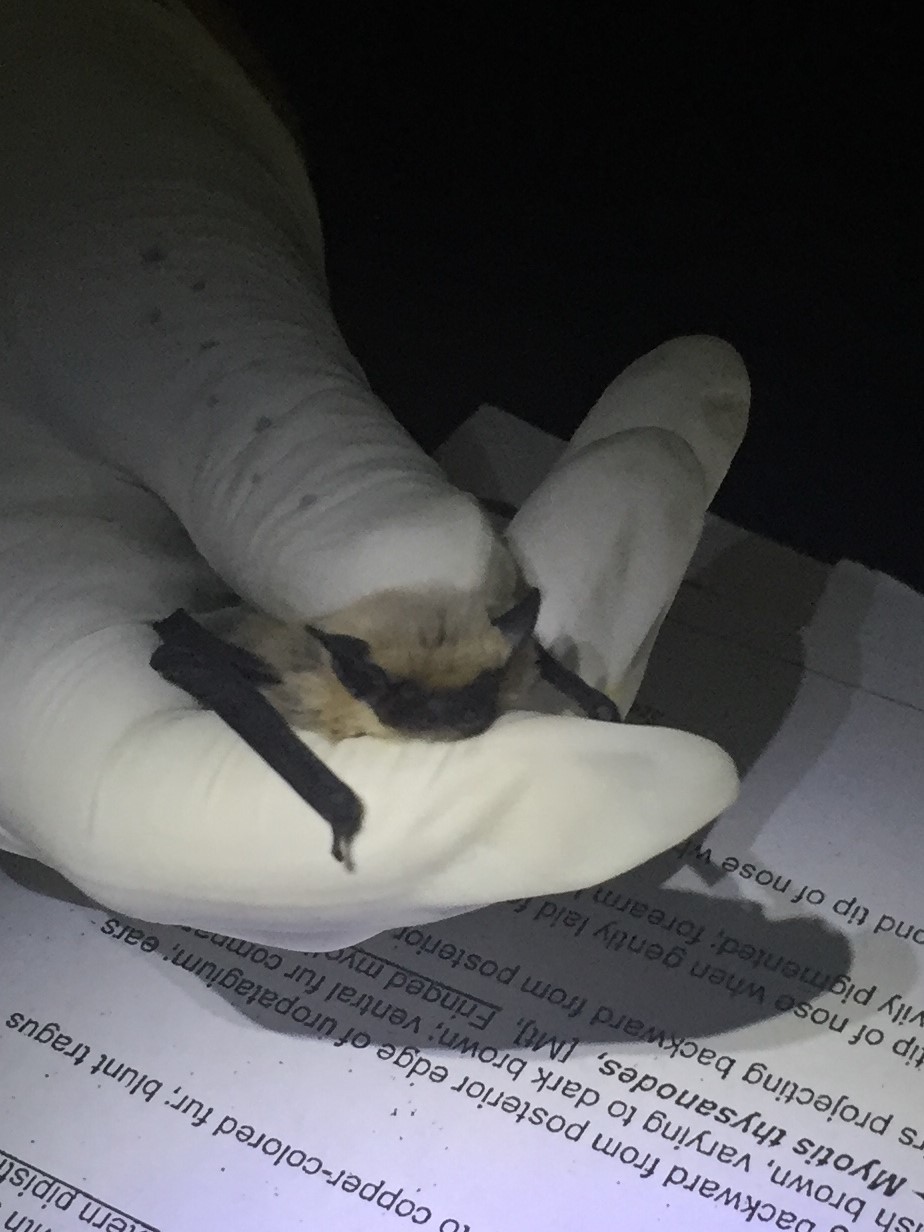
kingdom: Animalia
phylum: Chordata
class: Mammalia
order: Chiroptera
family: Vespertilionidae
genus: Parastrellus
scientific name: Parastrellus hesperus
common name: Canyon bat
